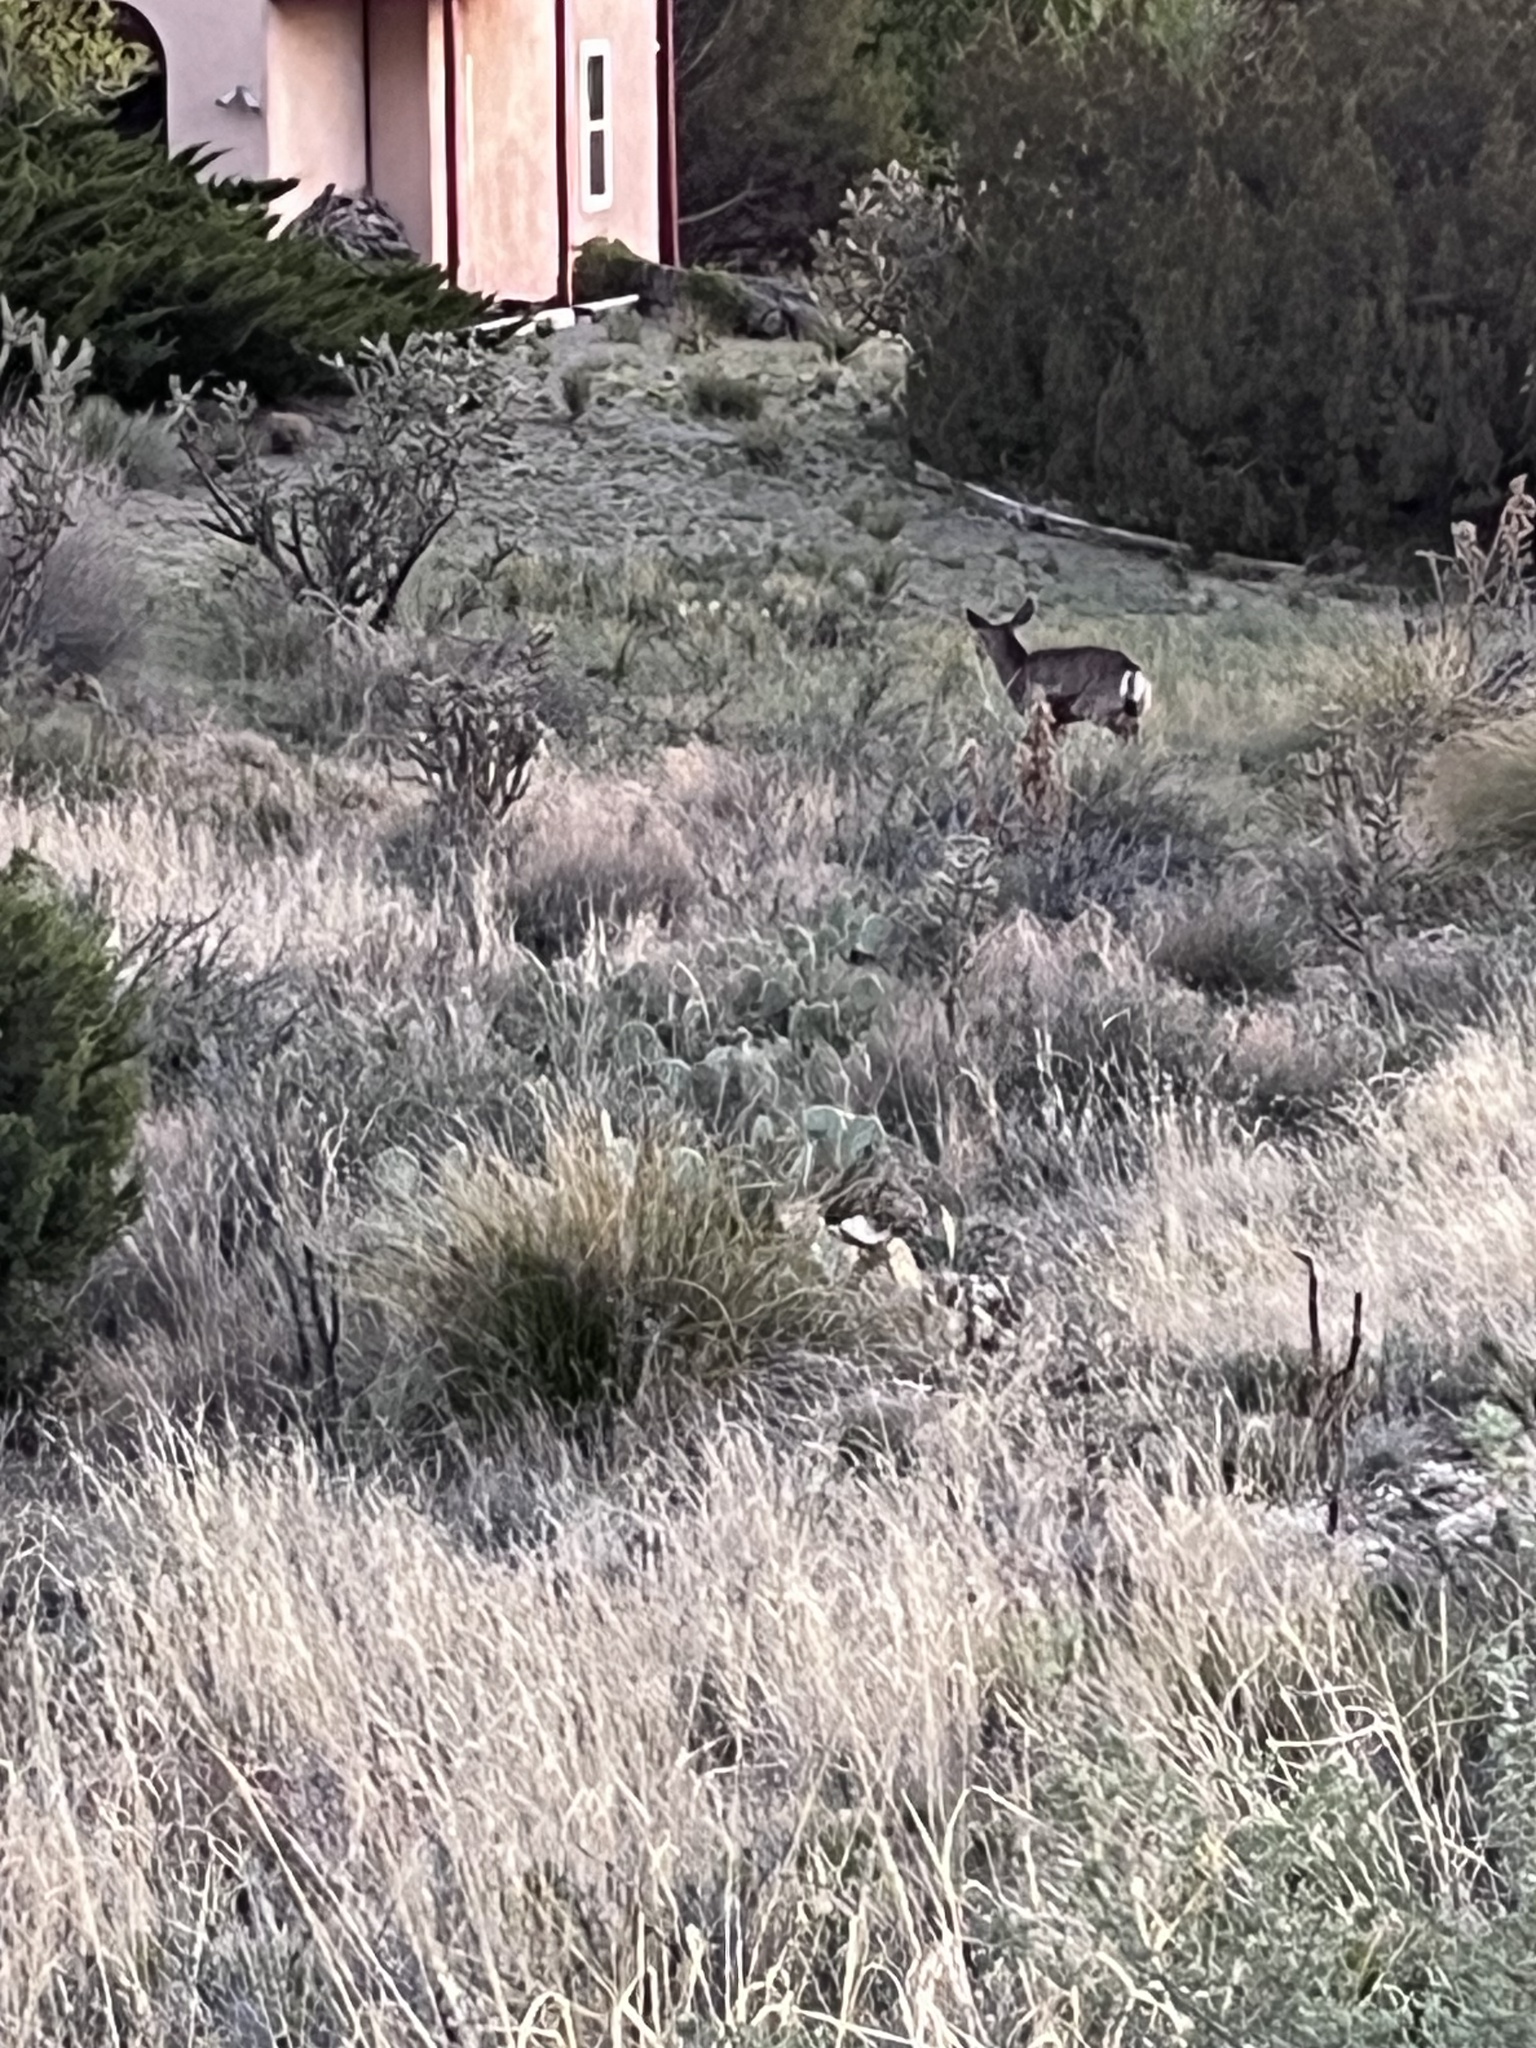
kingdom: Animalia
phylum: Chordata
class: Mammalia
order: Artiodactyla
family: Cervidae
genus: Odocoileus
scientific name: Odocoileus hemionus
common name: Mule deer
